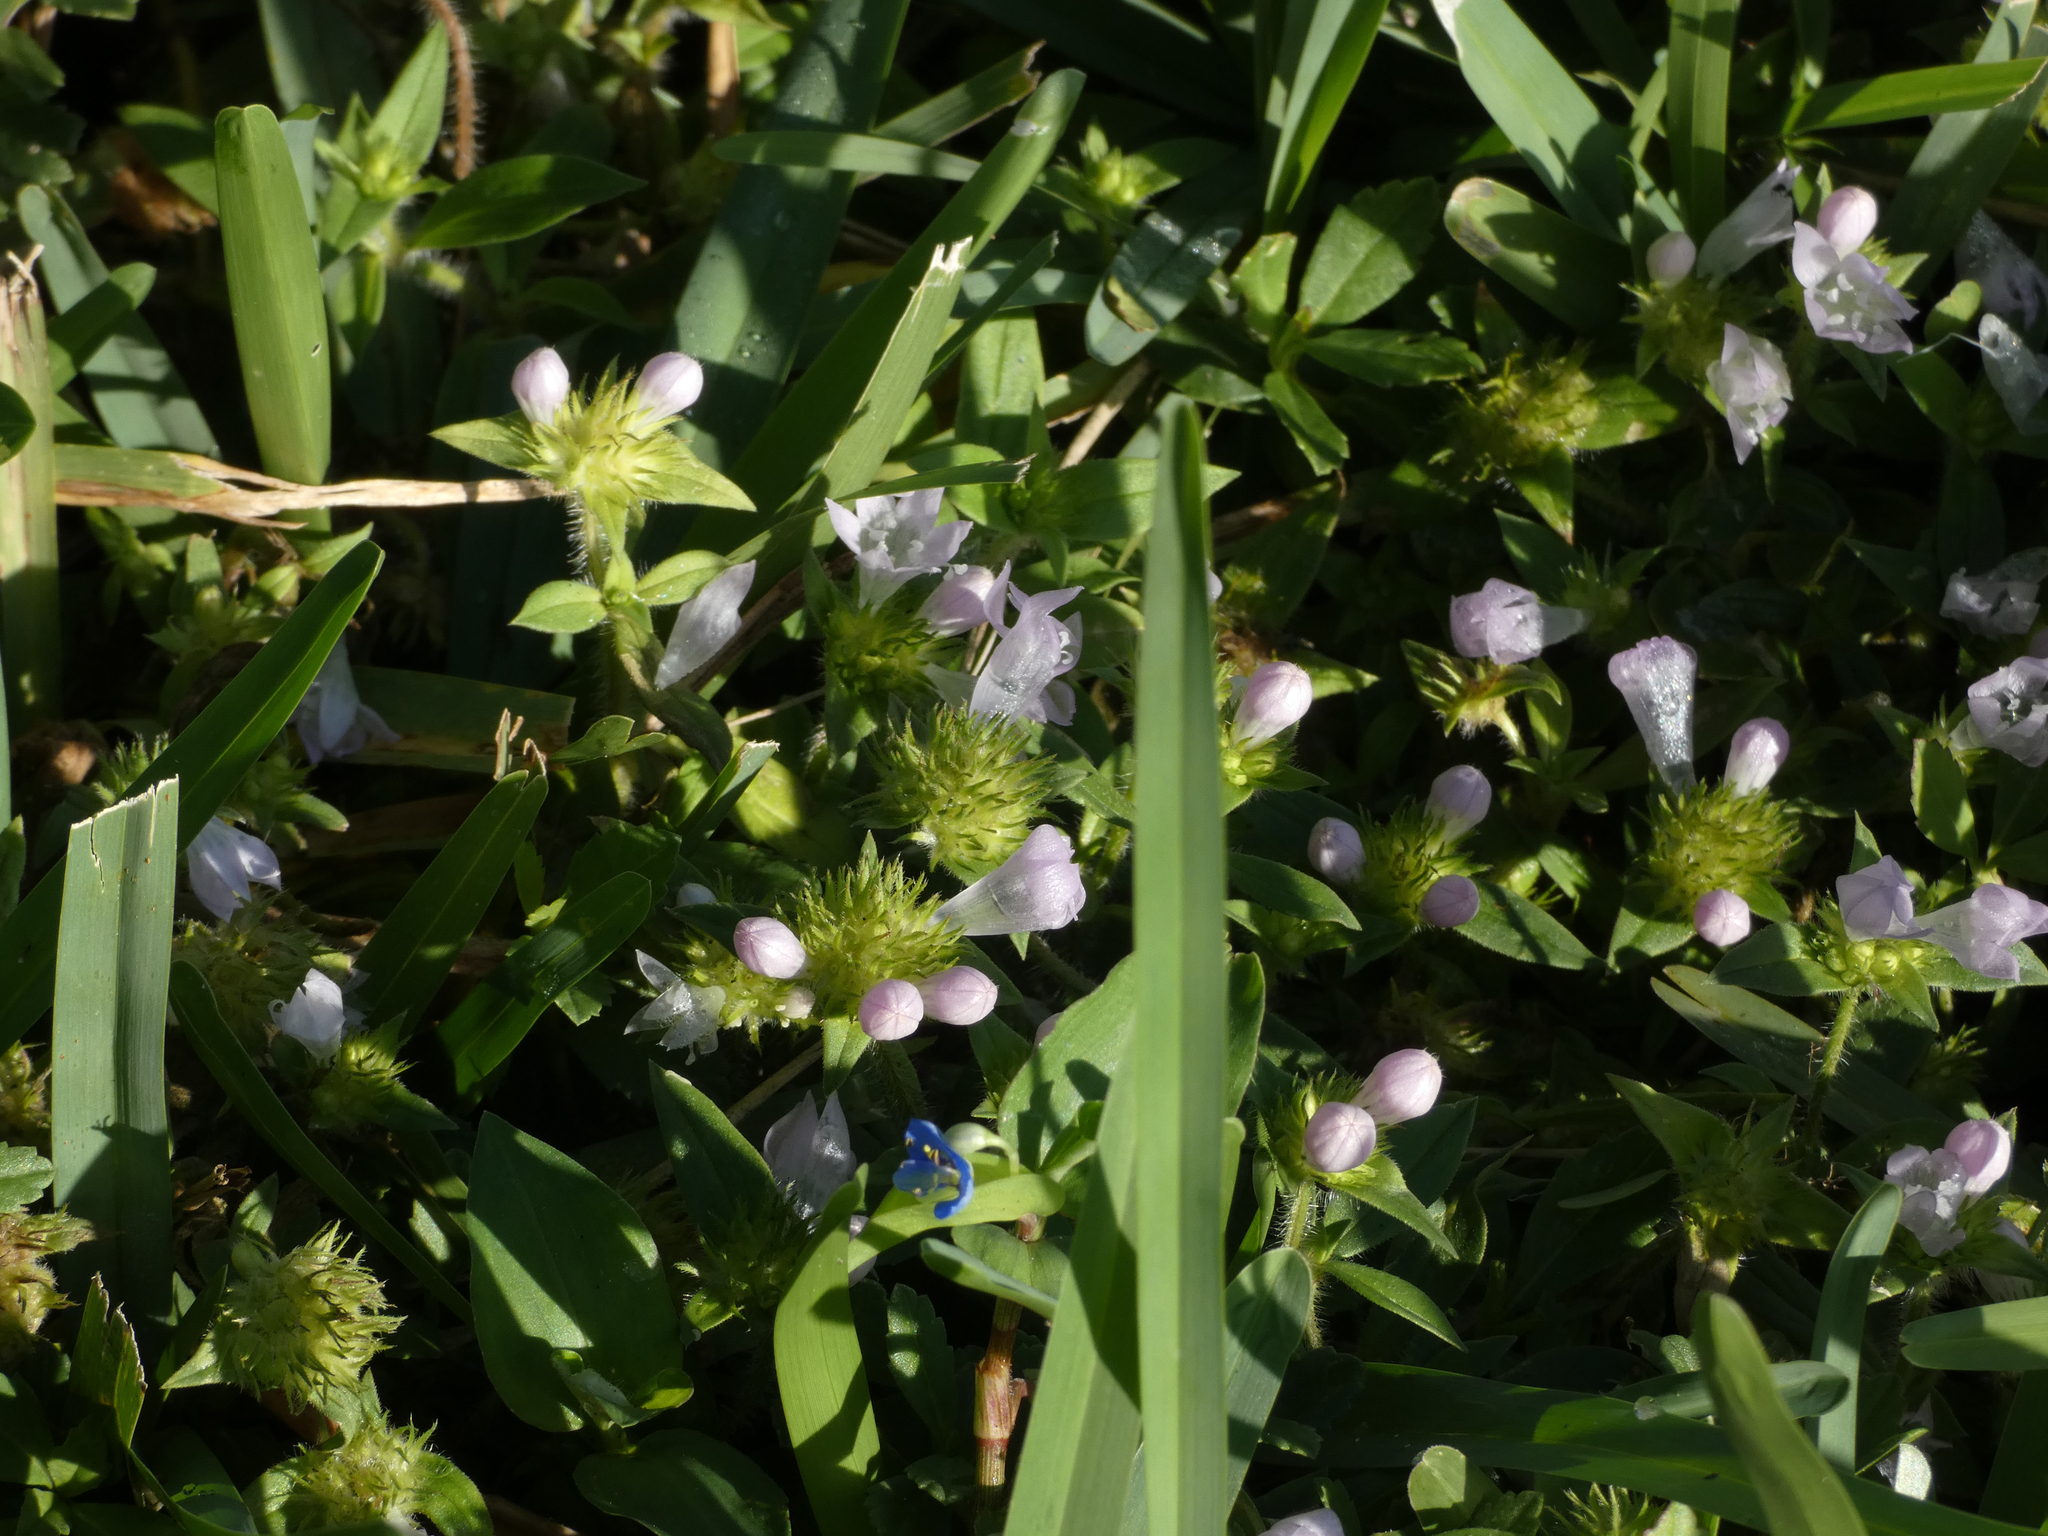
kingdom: Plantae
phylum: Tracheophyta
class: Magnoliopsida
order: Gentianales
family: Rubiaceae
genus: Richardia
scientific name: Richardia grandiflora
